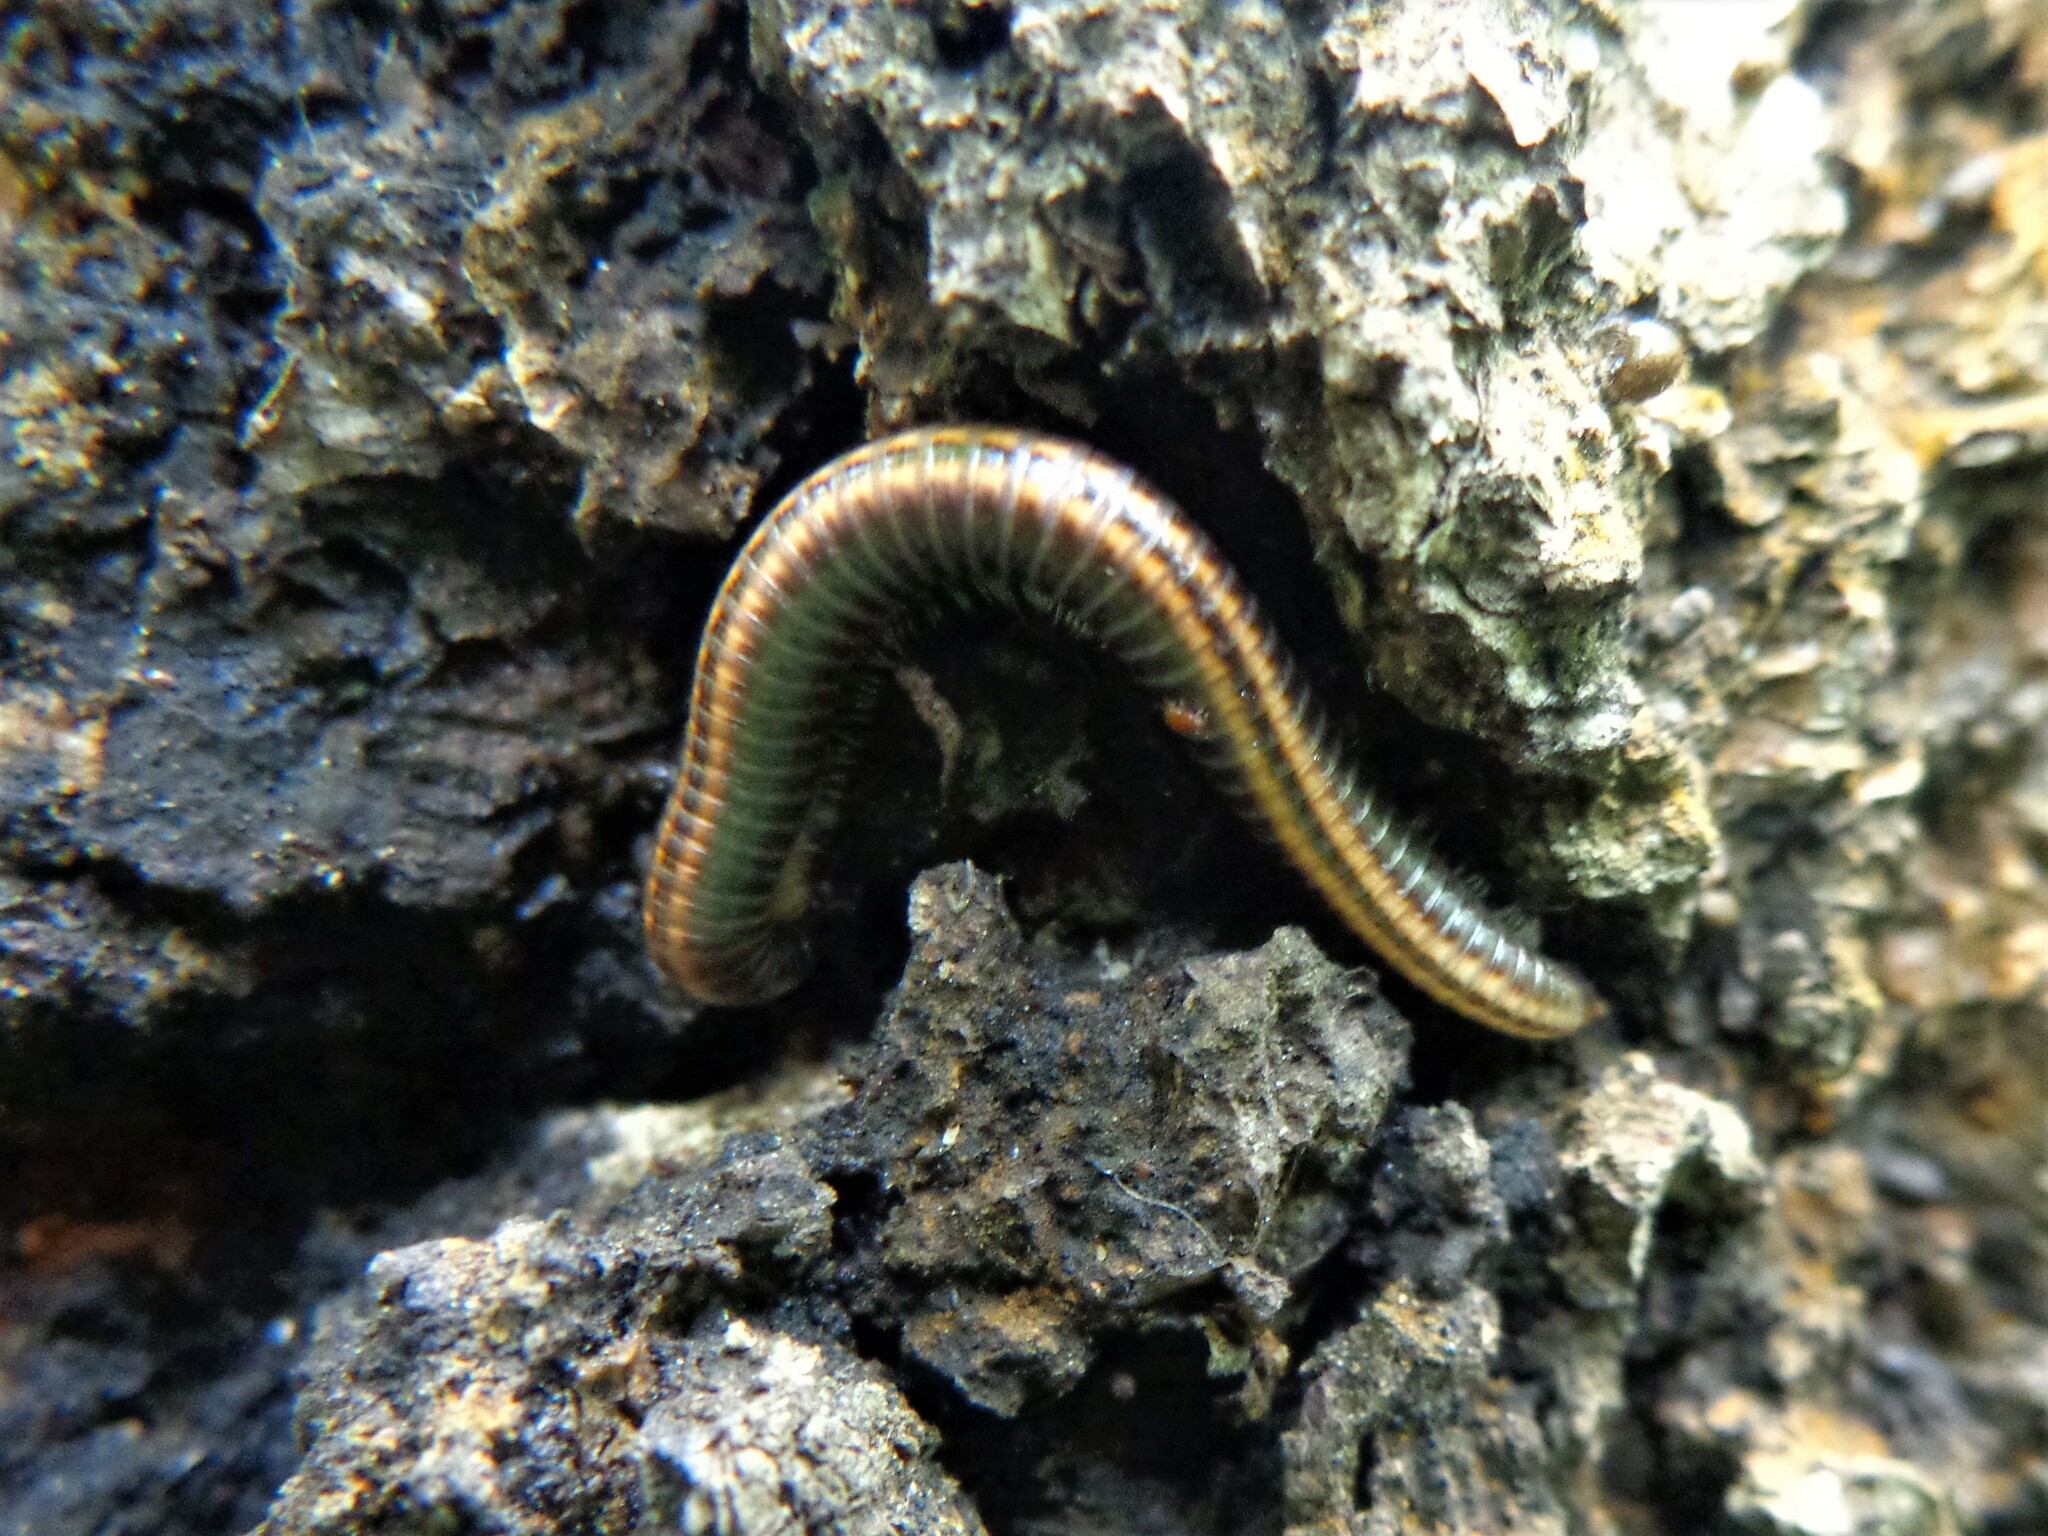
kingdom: Animalia
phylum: Arthropoda
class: Diplopoda
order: Julida
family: Julidae
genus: Ommatoiulus
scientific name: Ommatoiulus sabulosus
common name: Striped millipede
